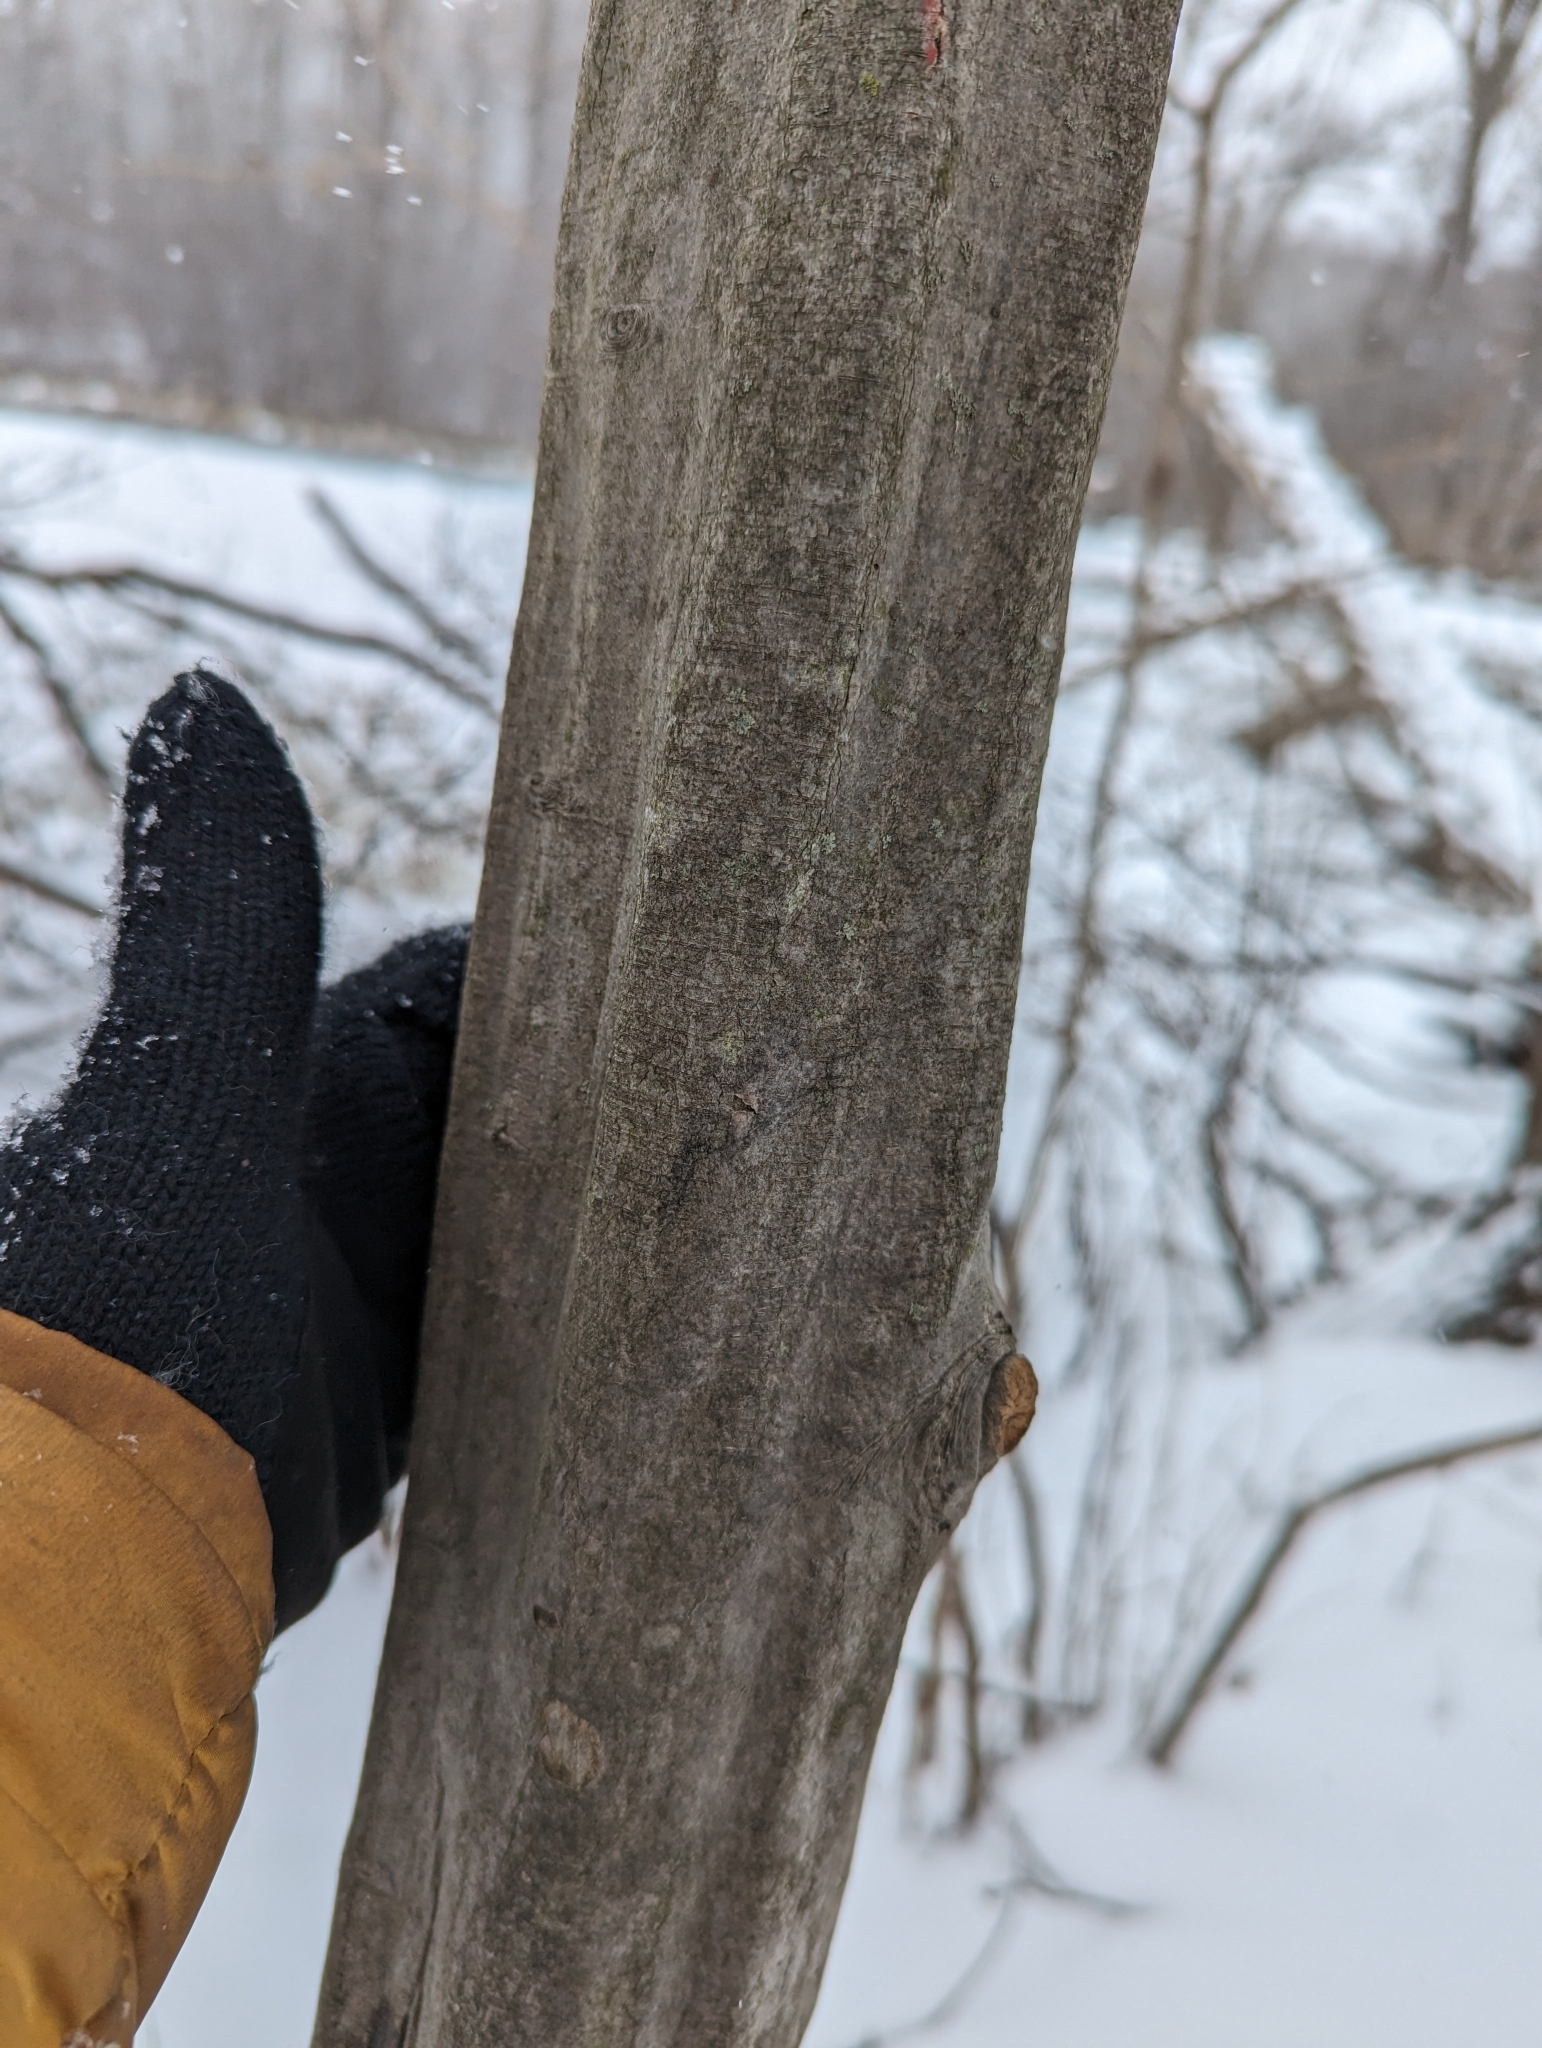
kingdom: Plantae
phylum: Tracheophyta
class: Magnoliopsida
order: Fagales
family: Betulaceae
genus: Carpinus
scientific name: Carpinus caroliniana
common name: American hornbeam
